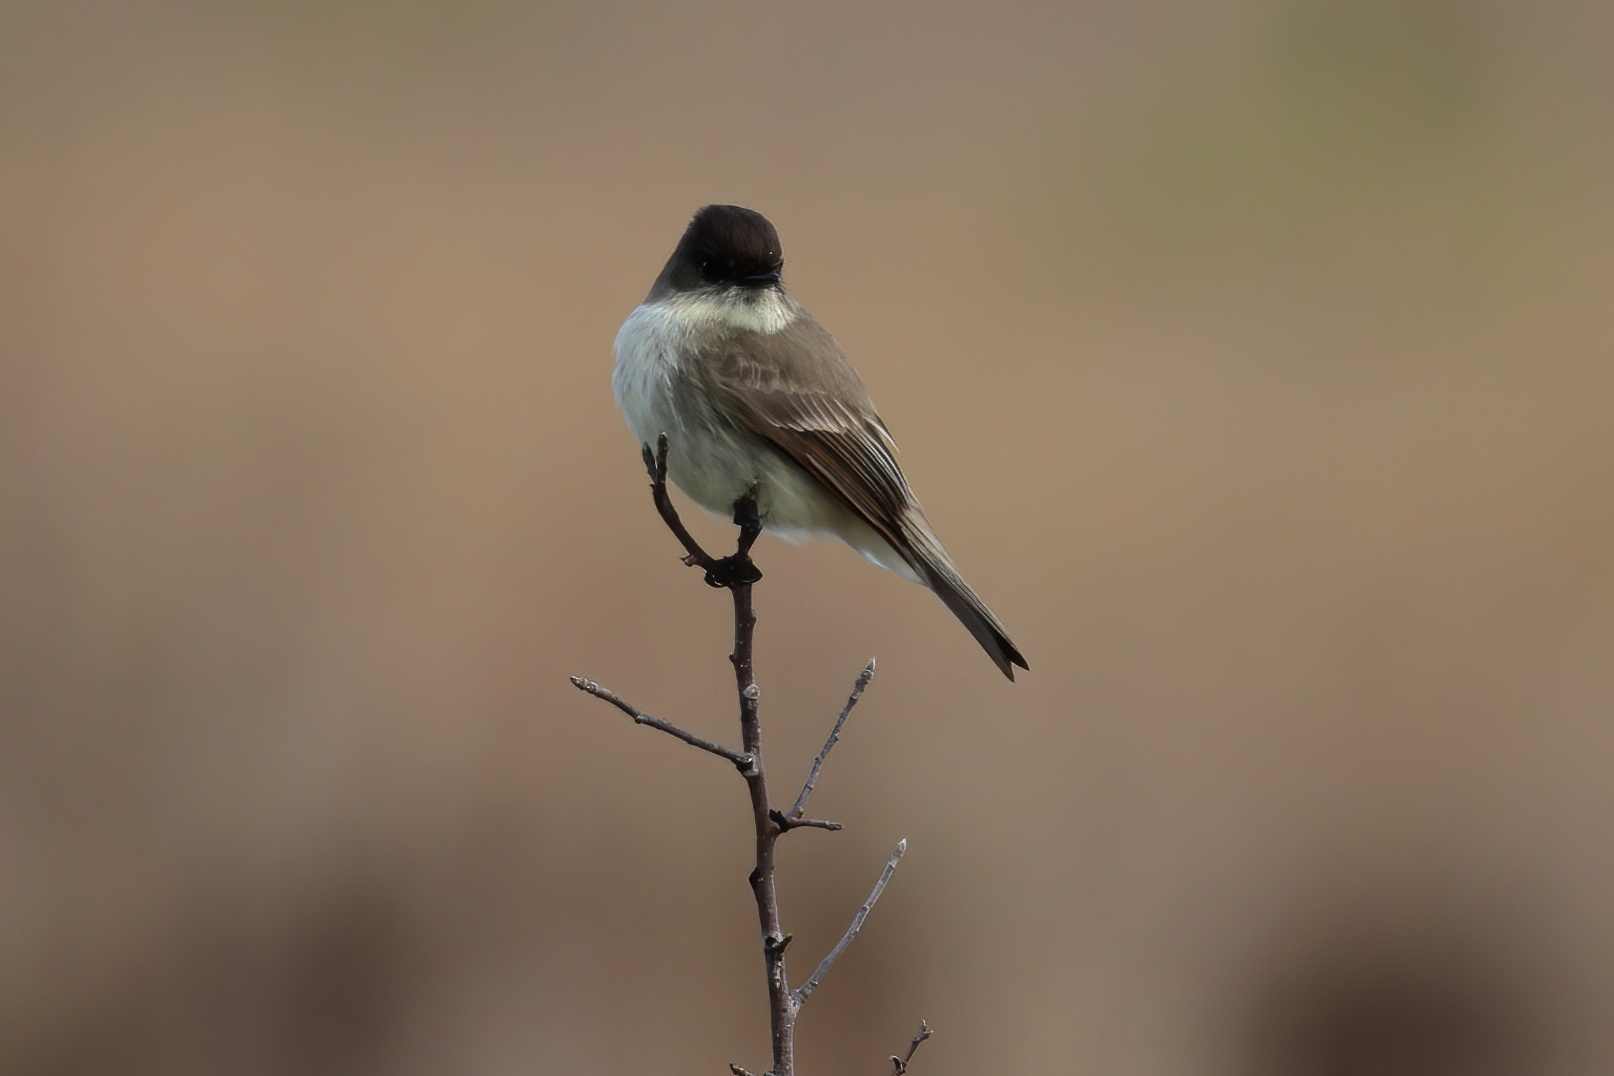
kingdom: Animalia
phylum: Chordata
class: Aves
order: Passeriformes
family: Tyrannidae
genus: Sayornis
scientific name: Sayornis phoebe
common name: Eastern phoebe
